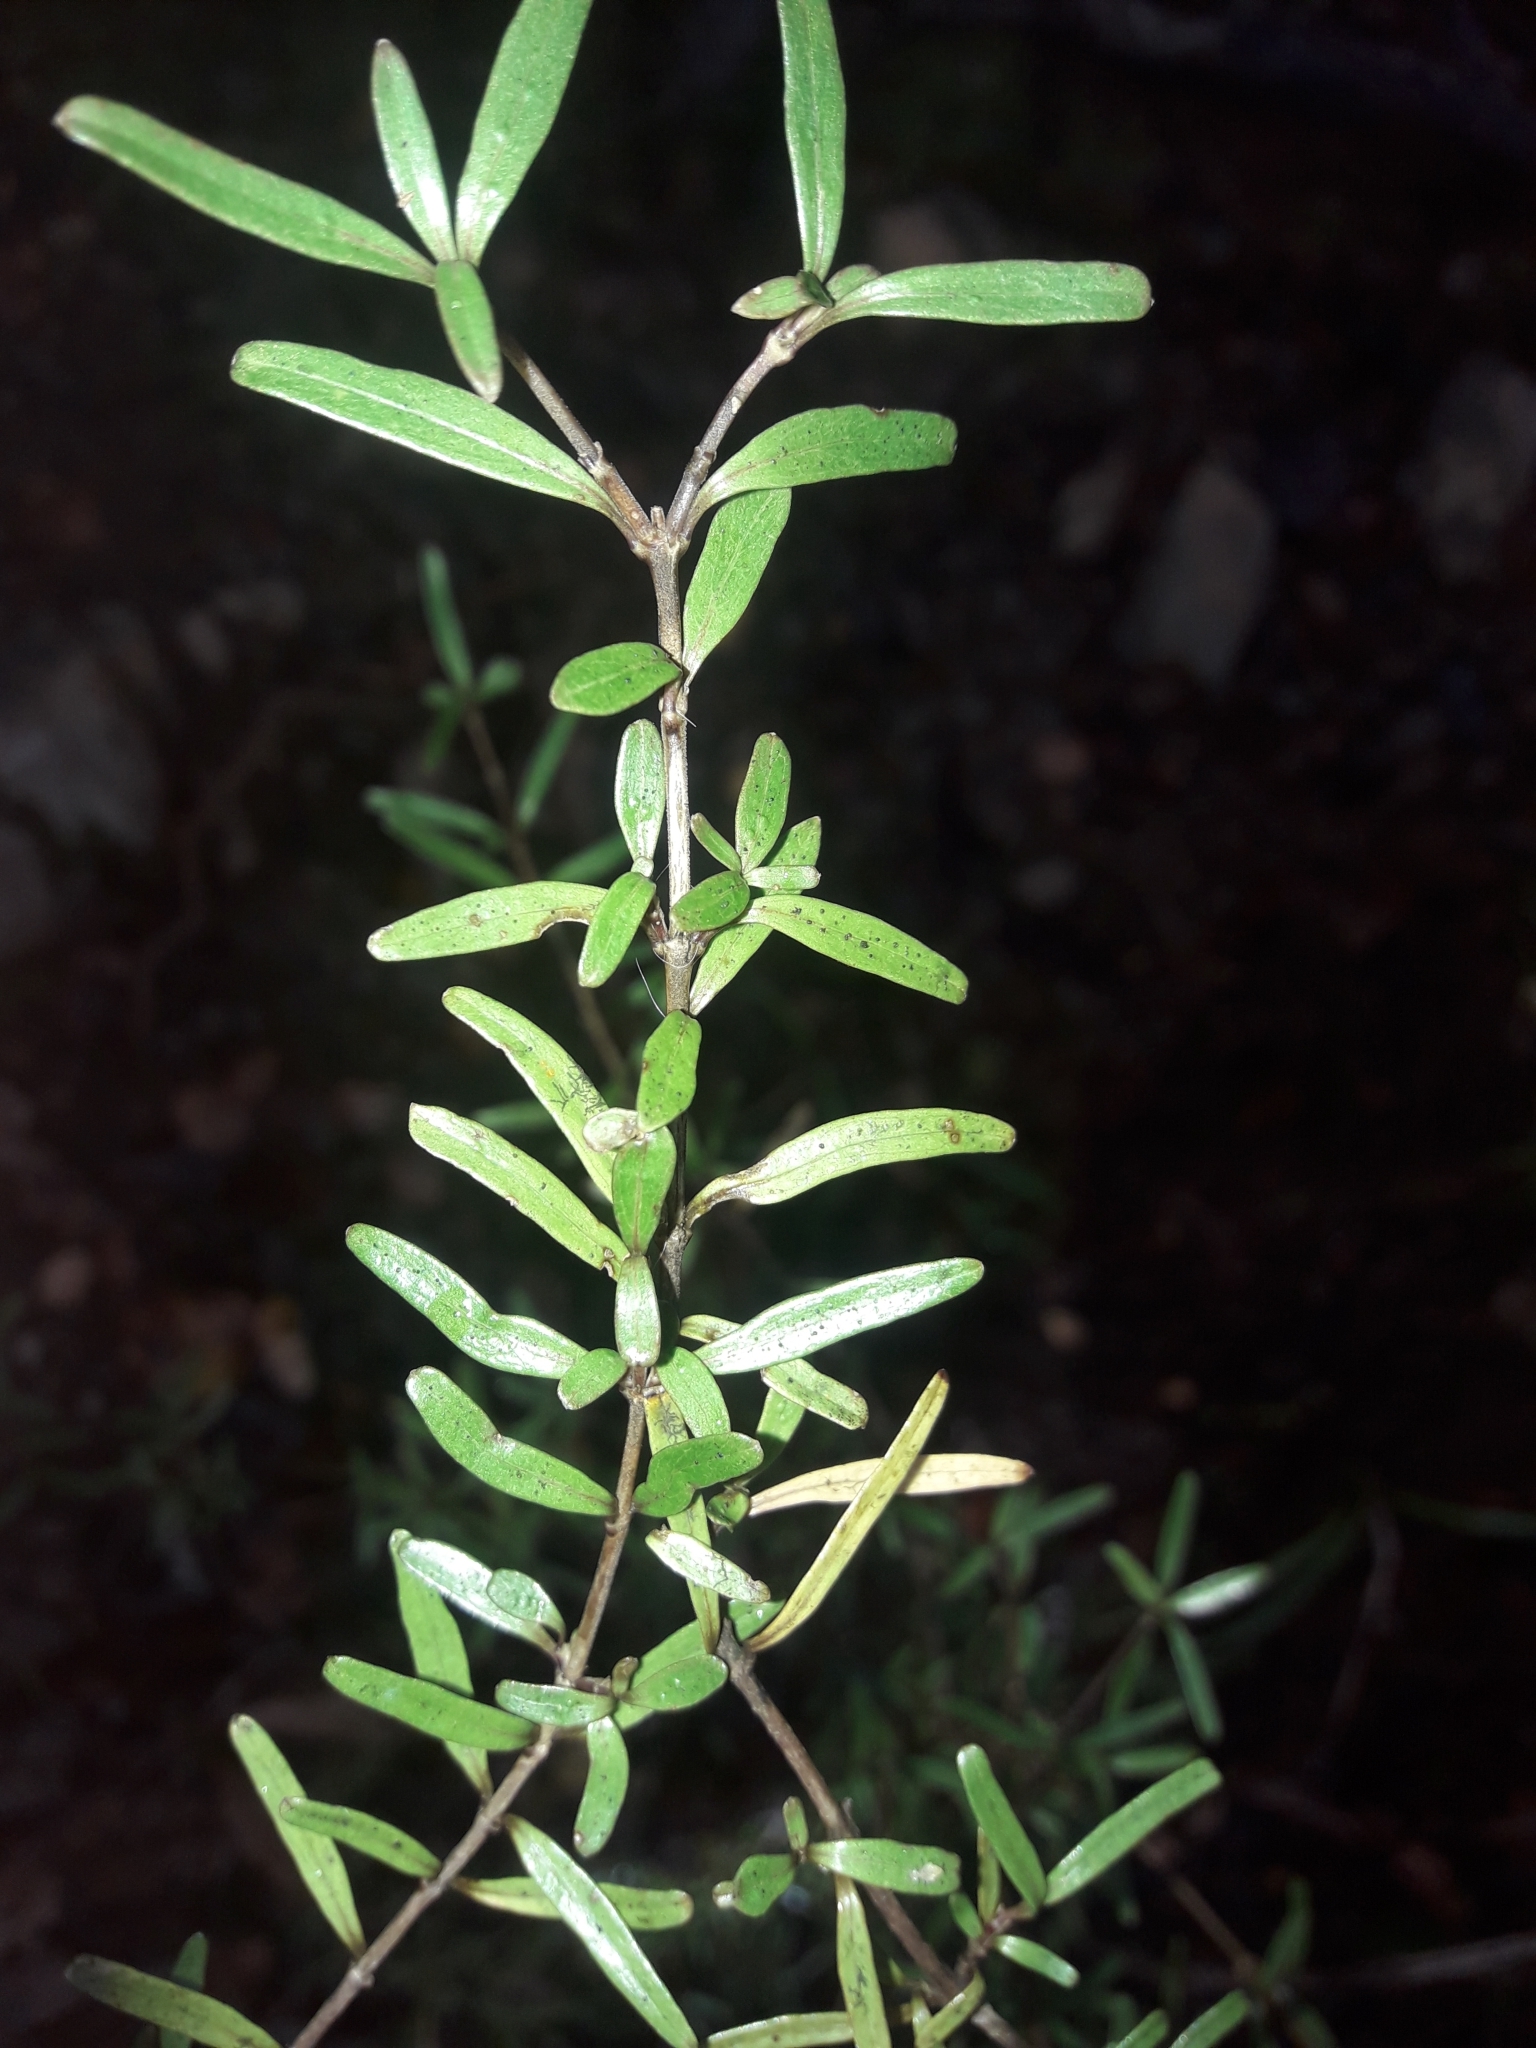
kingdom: Plantae
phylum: Tracheophyta
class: Magnoliopsida
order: Gentianales
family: Rubiaceae
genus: Coprosma
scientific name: Coprosma colensoi
